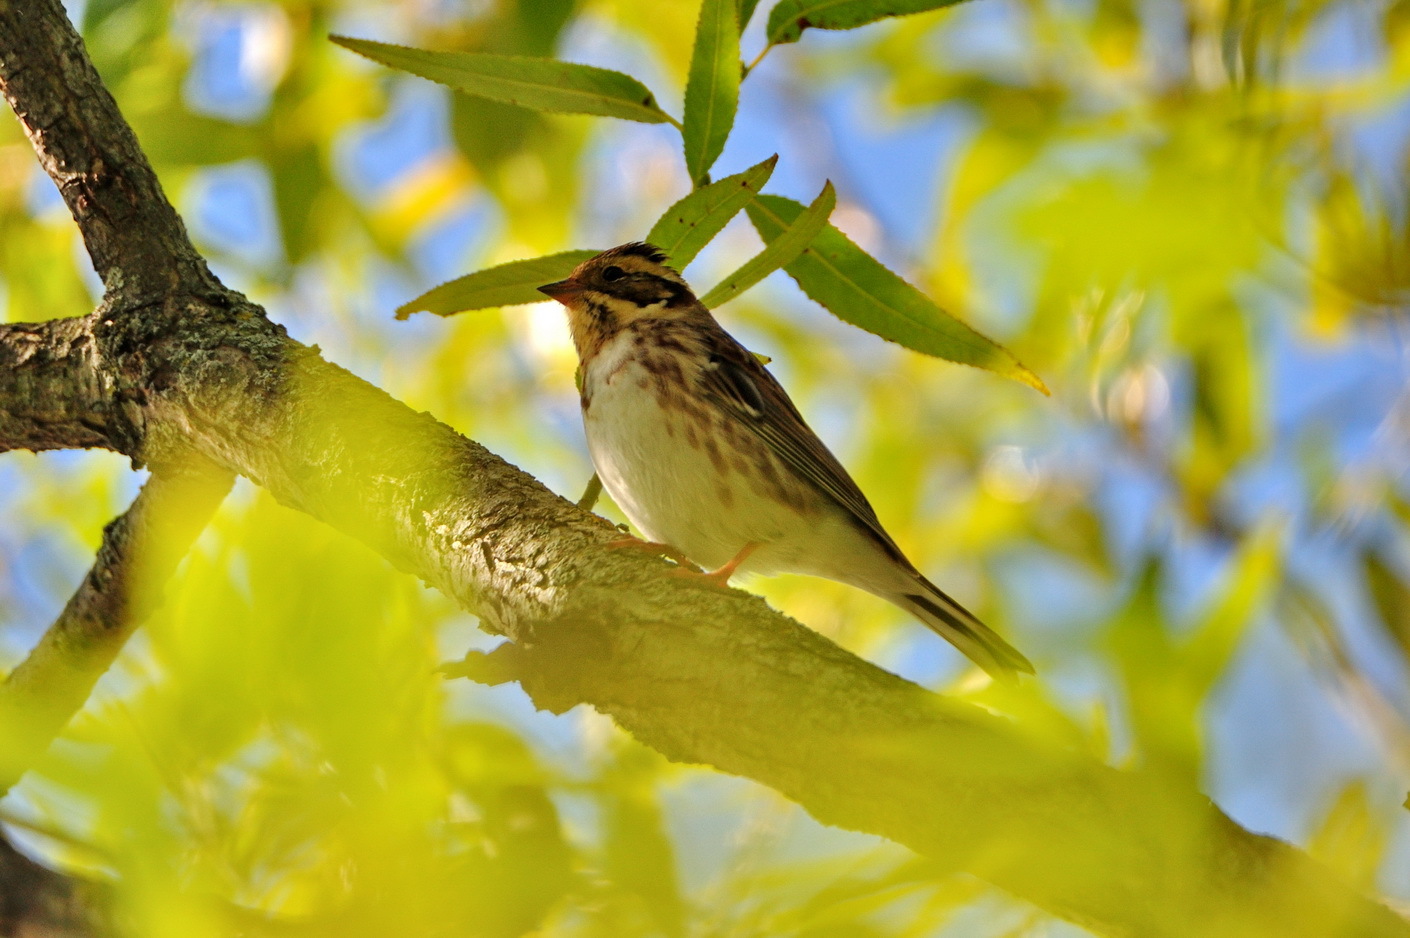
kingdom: Animalia
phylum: Chordata
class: Aves
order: Passeriformes
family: Emberizidae
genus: Emberiza
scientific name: Emberiza rustica
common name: Rustic bunting
